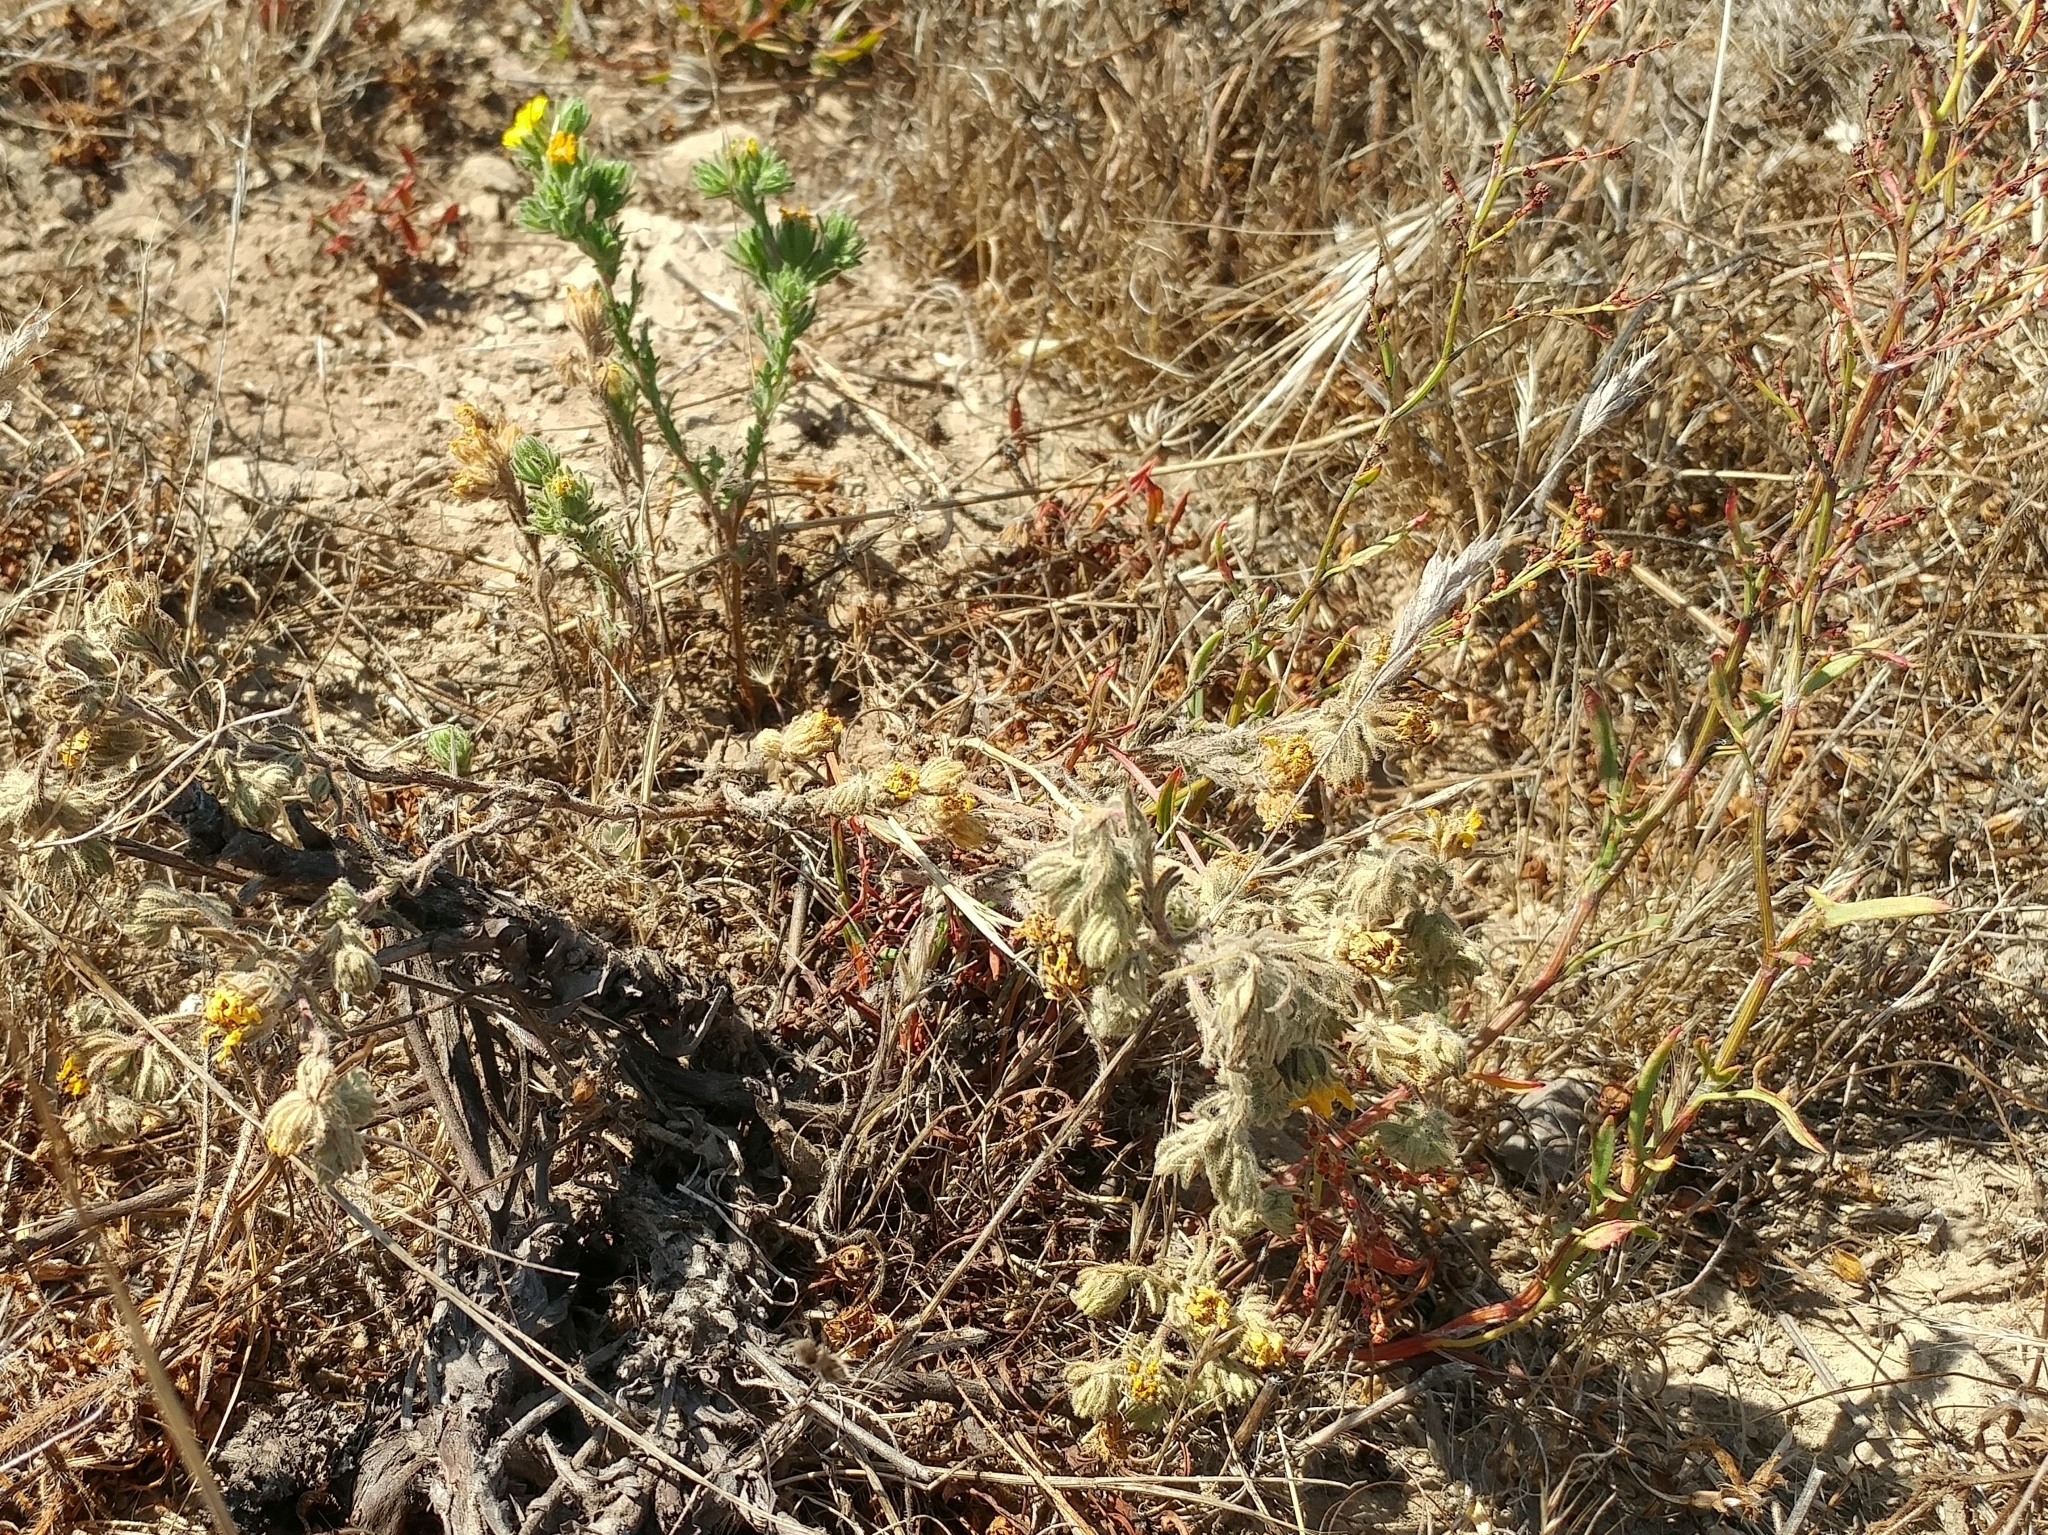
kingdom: Plantae
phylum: Tracheophyta
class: Magnoliopsida
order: Asterales
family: Asteraceae
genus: Deinandra
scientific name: Deinandra increscens
